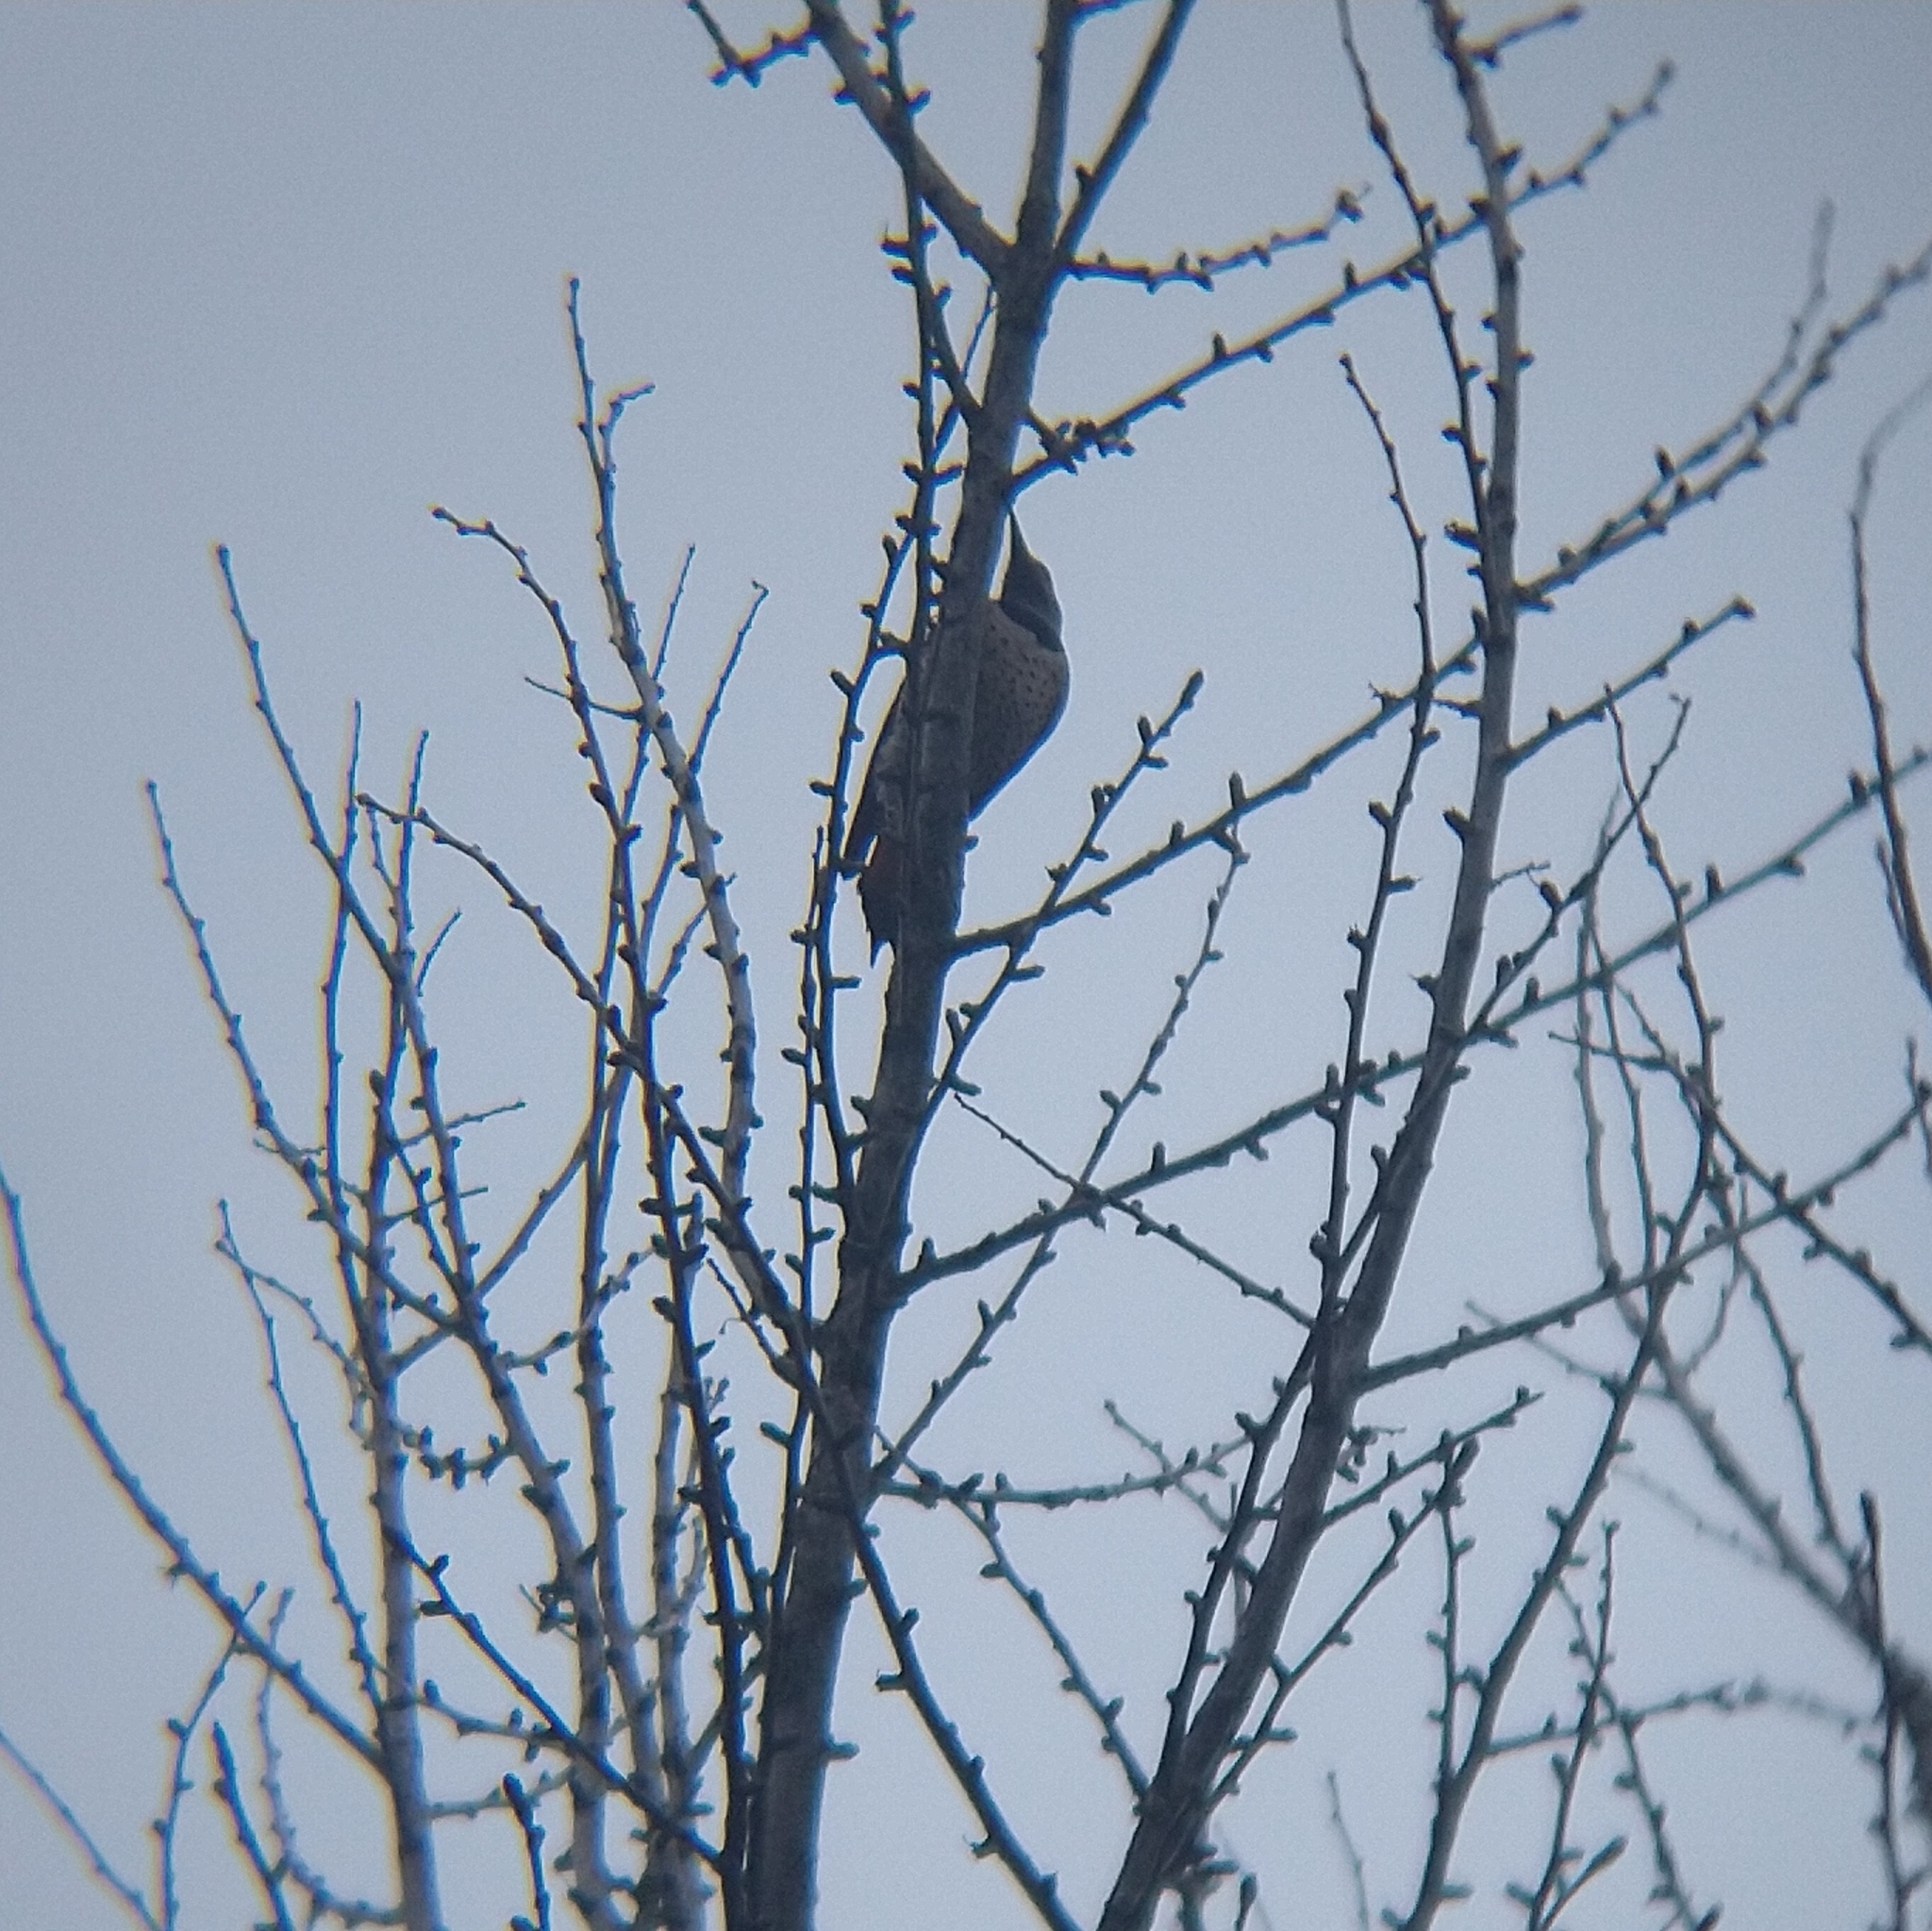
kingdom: Animalia
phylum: Chordata
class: Aves
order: Piciformes
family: Picidae
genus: Colaptes
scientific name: Colaptes auratus
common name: Northern flicker
